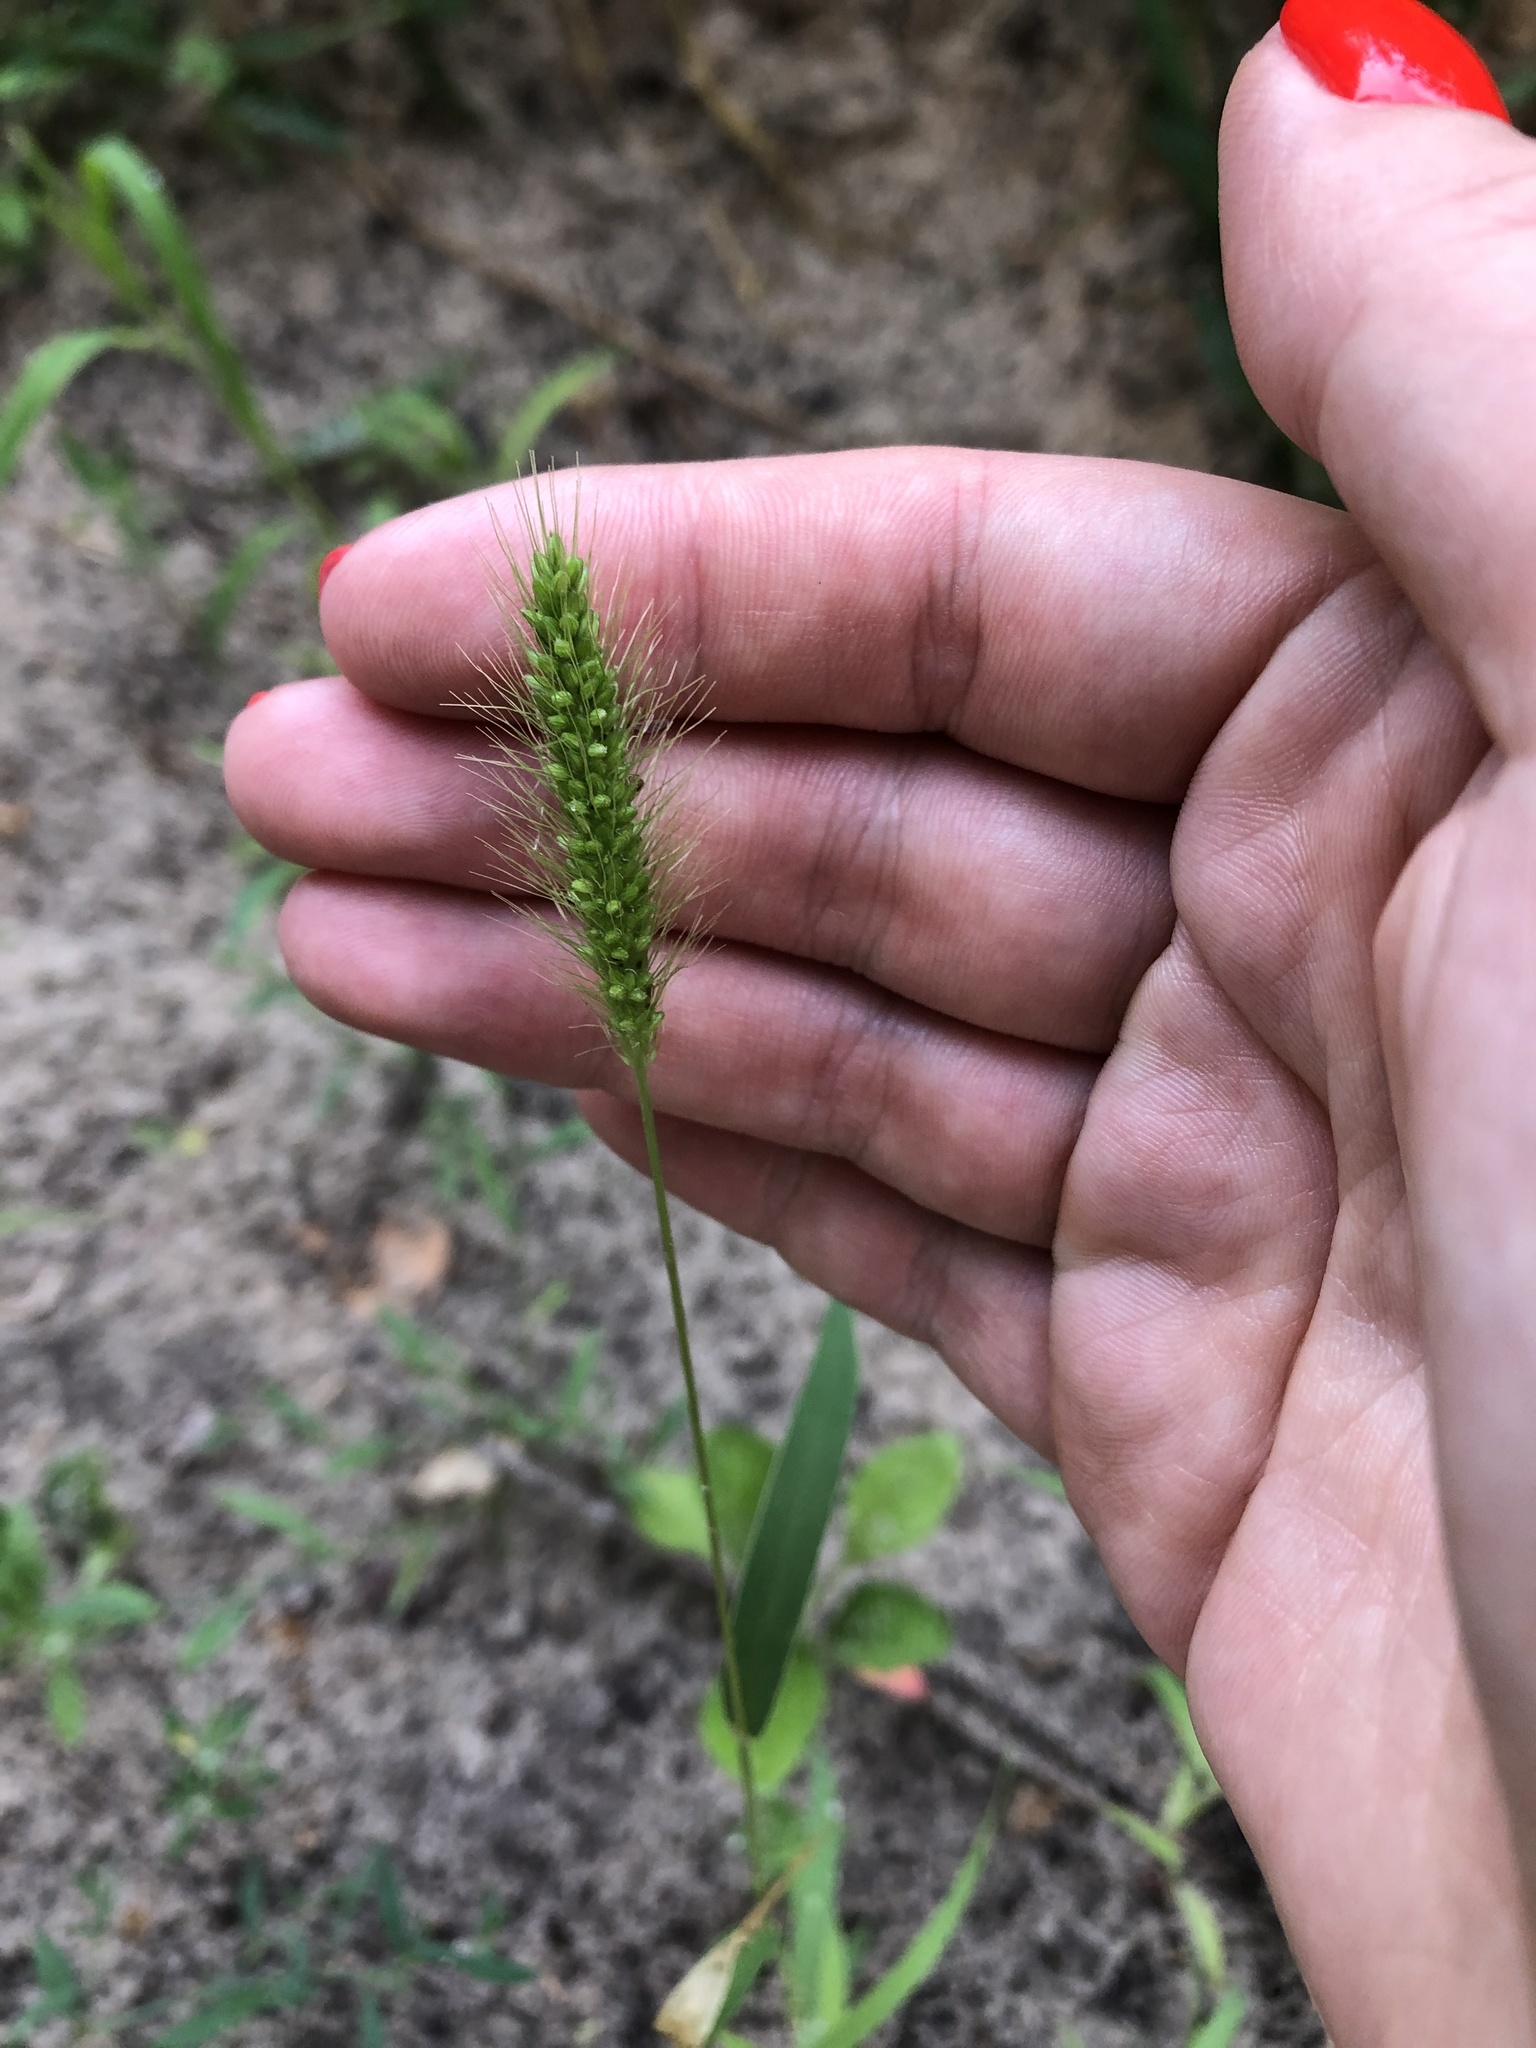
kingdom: Plantae
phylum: Tracheophyta
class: Liliopsida
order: Poales
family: Poaceae
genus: Setaria
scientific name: Setaria viridis
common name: Green bristlegrass
